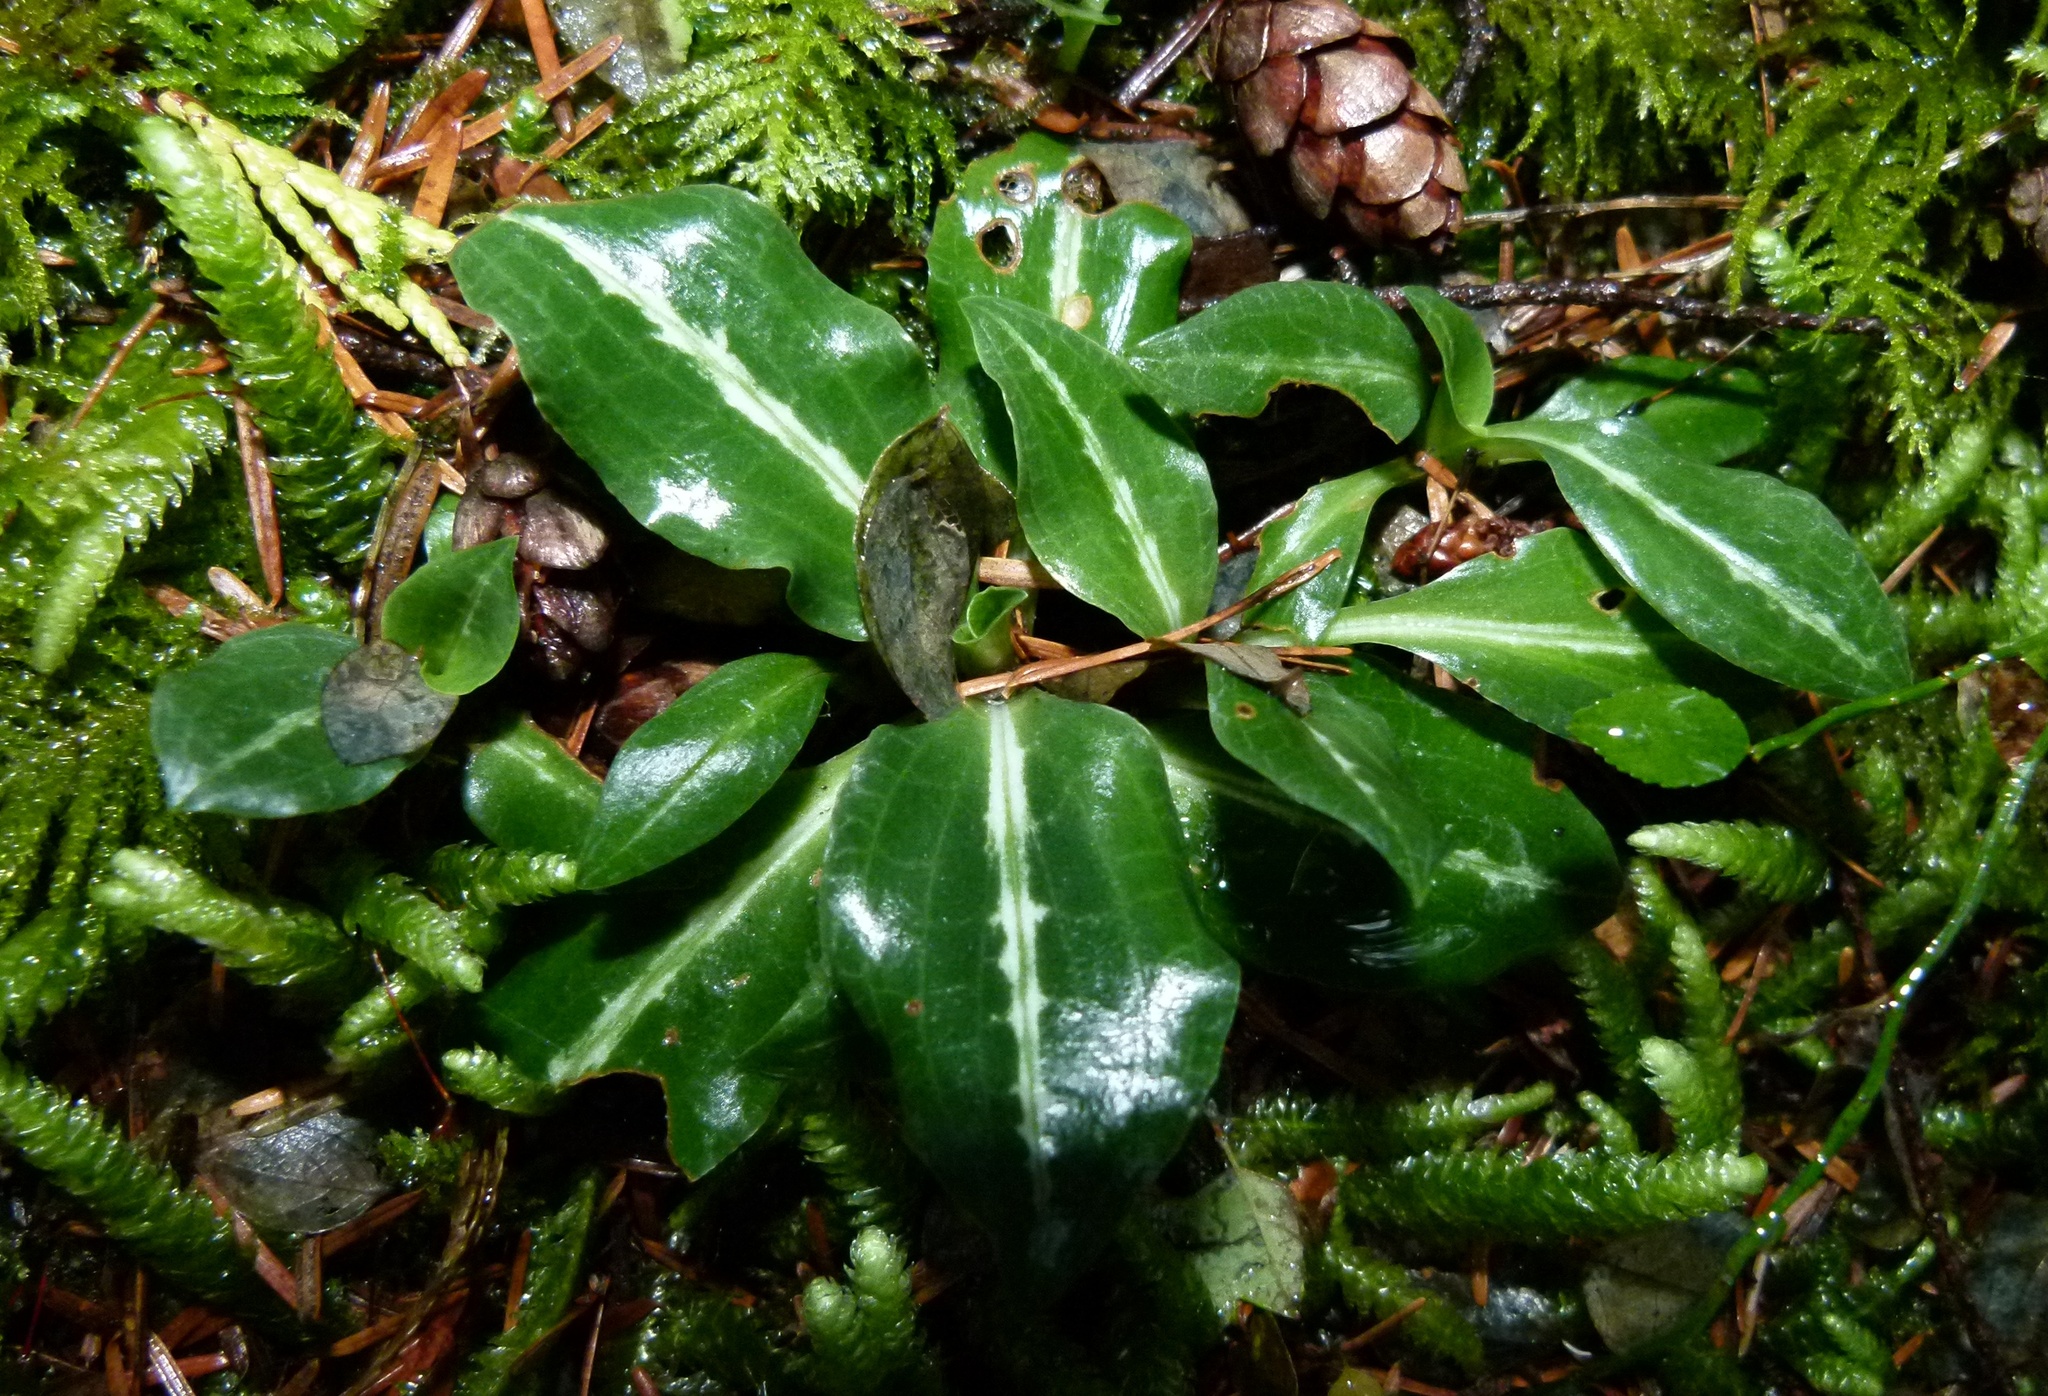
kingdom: Plantae
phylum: Tracheophyta
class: Liliopsida
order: Asparagales
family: Orchidaceae
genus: Goodyera
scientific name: Goodyera oblongifolia
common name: Giant rattlesnake-plantain
